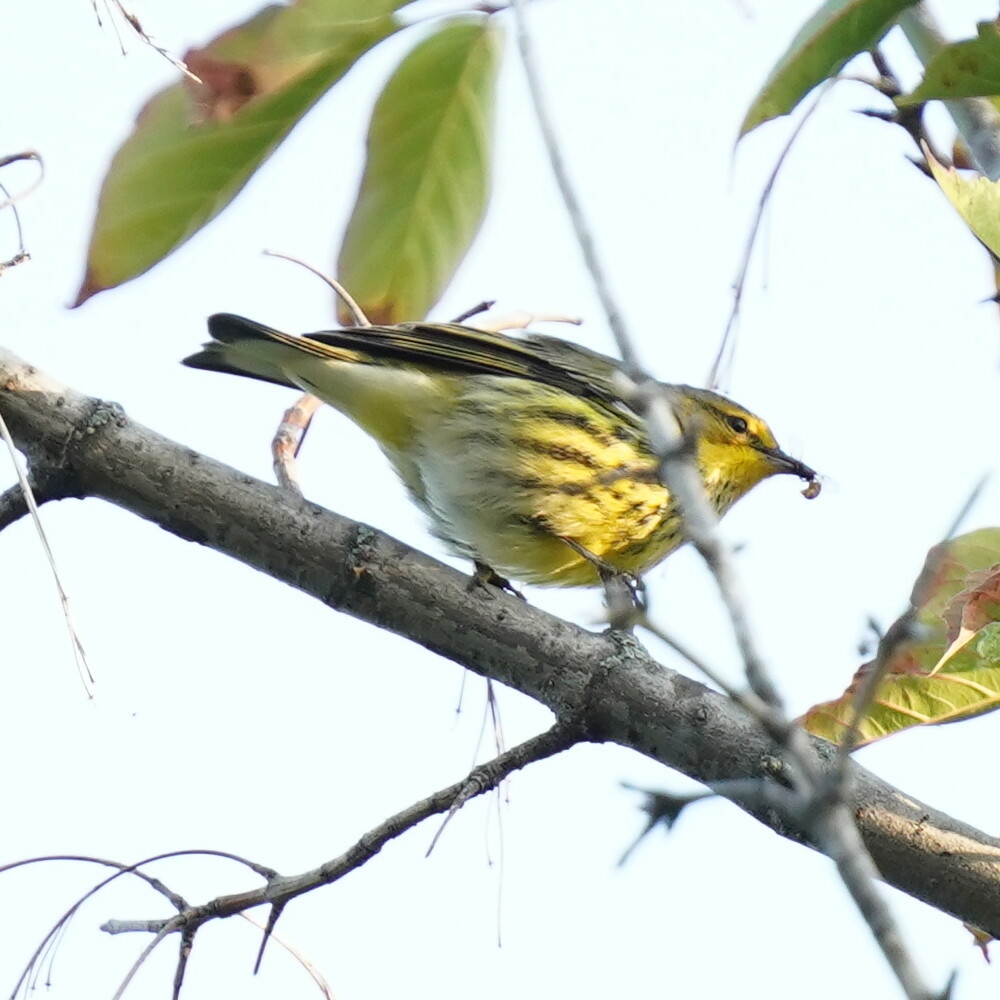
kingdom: Animalia
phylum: Chordata
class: Aves
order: Passeriformes
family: Parulidae
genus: Setophaga
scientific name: Setophaga tigrina
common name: Cape may warbler
